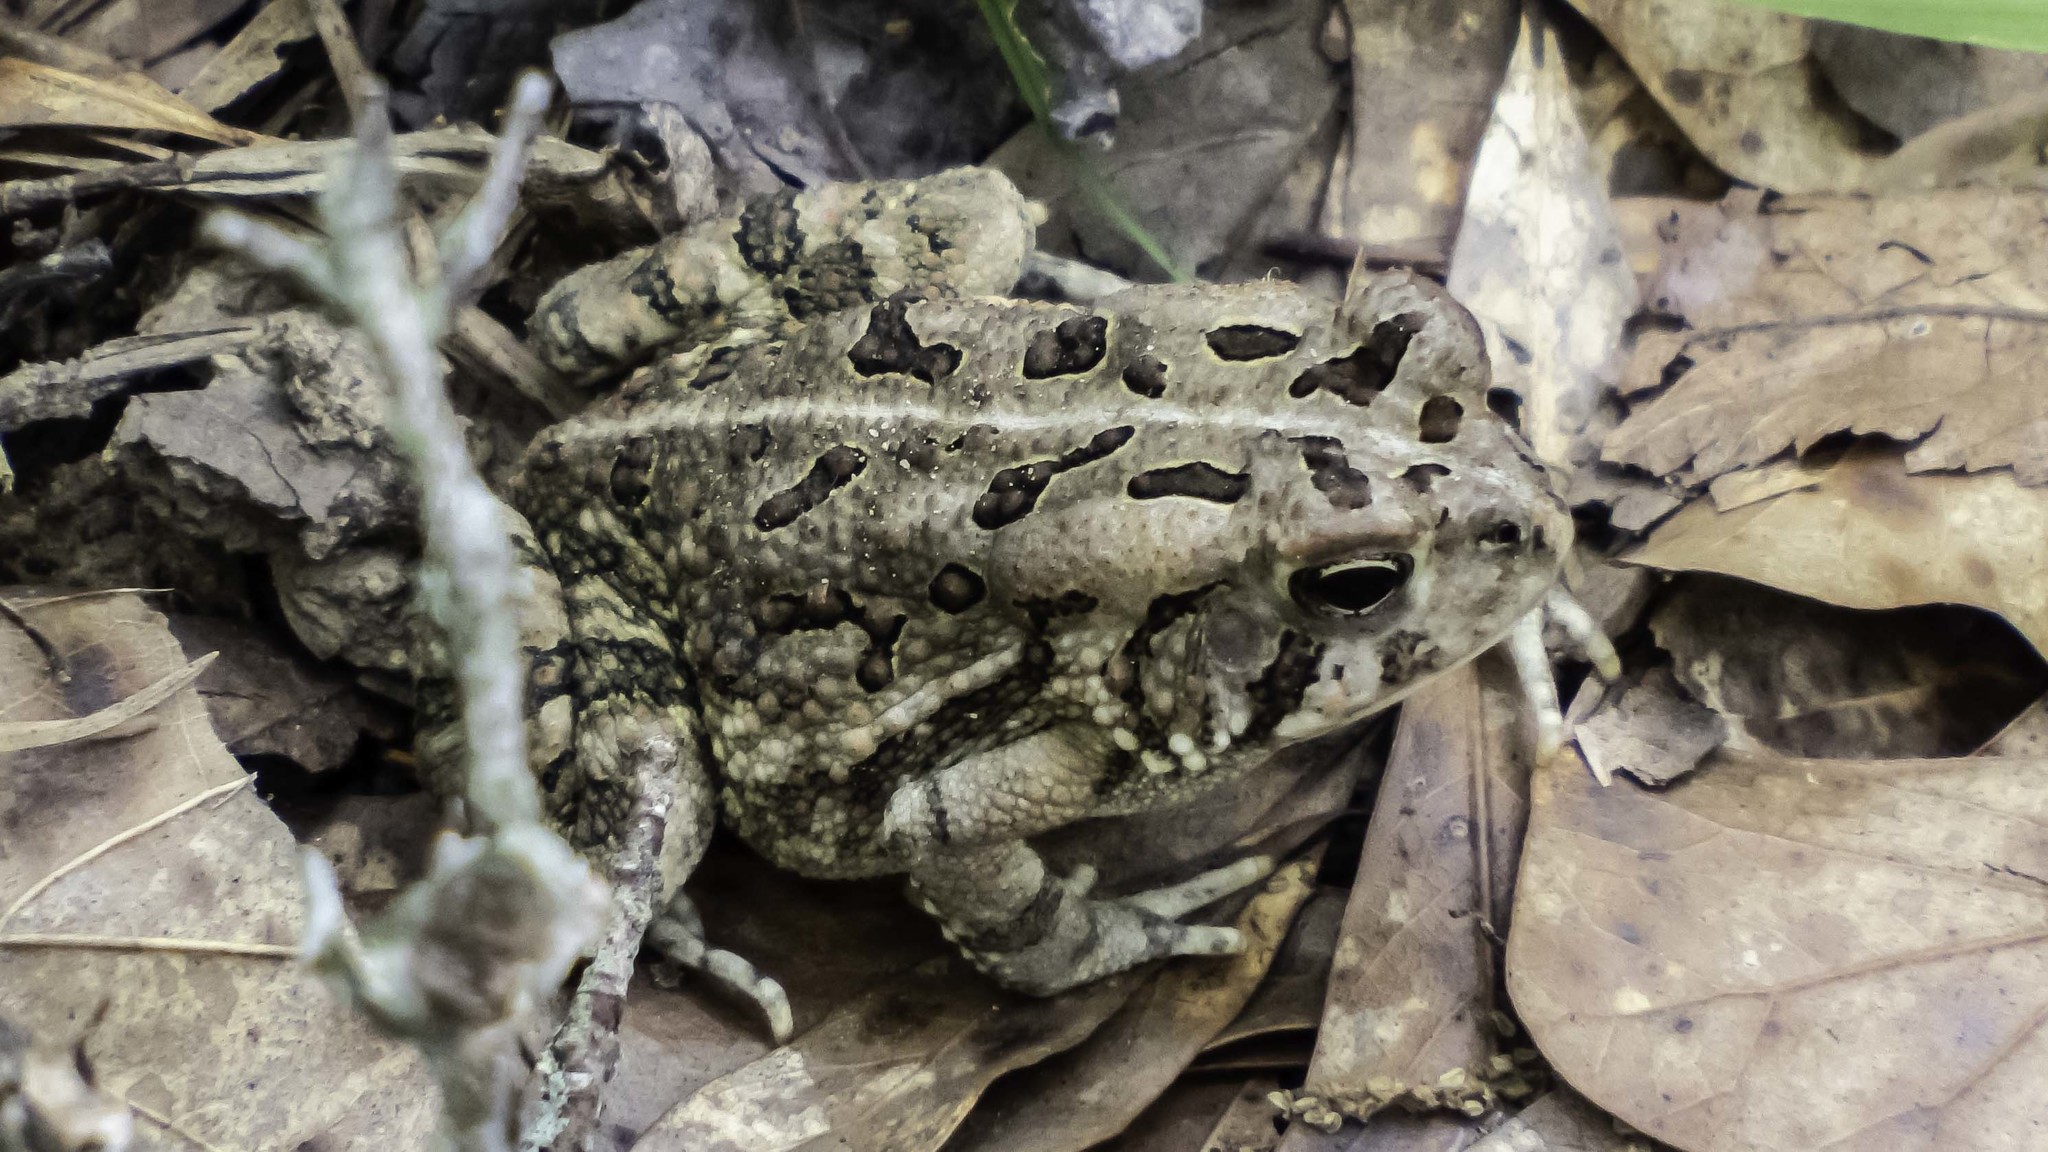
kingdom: Animalia
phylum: Chordata
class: Amphibia
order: Anura
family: Bufonidae
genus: Anaxyrus
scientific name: Anaxyrus fowleri
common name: Fowler's toad
